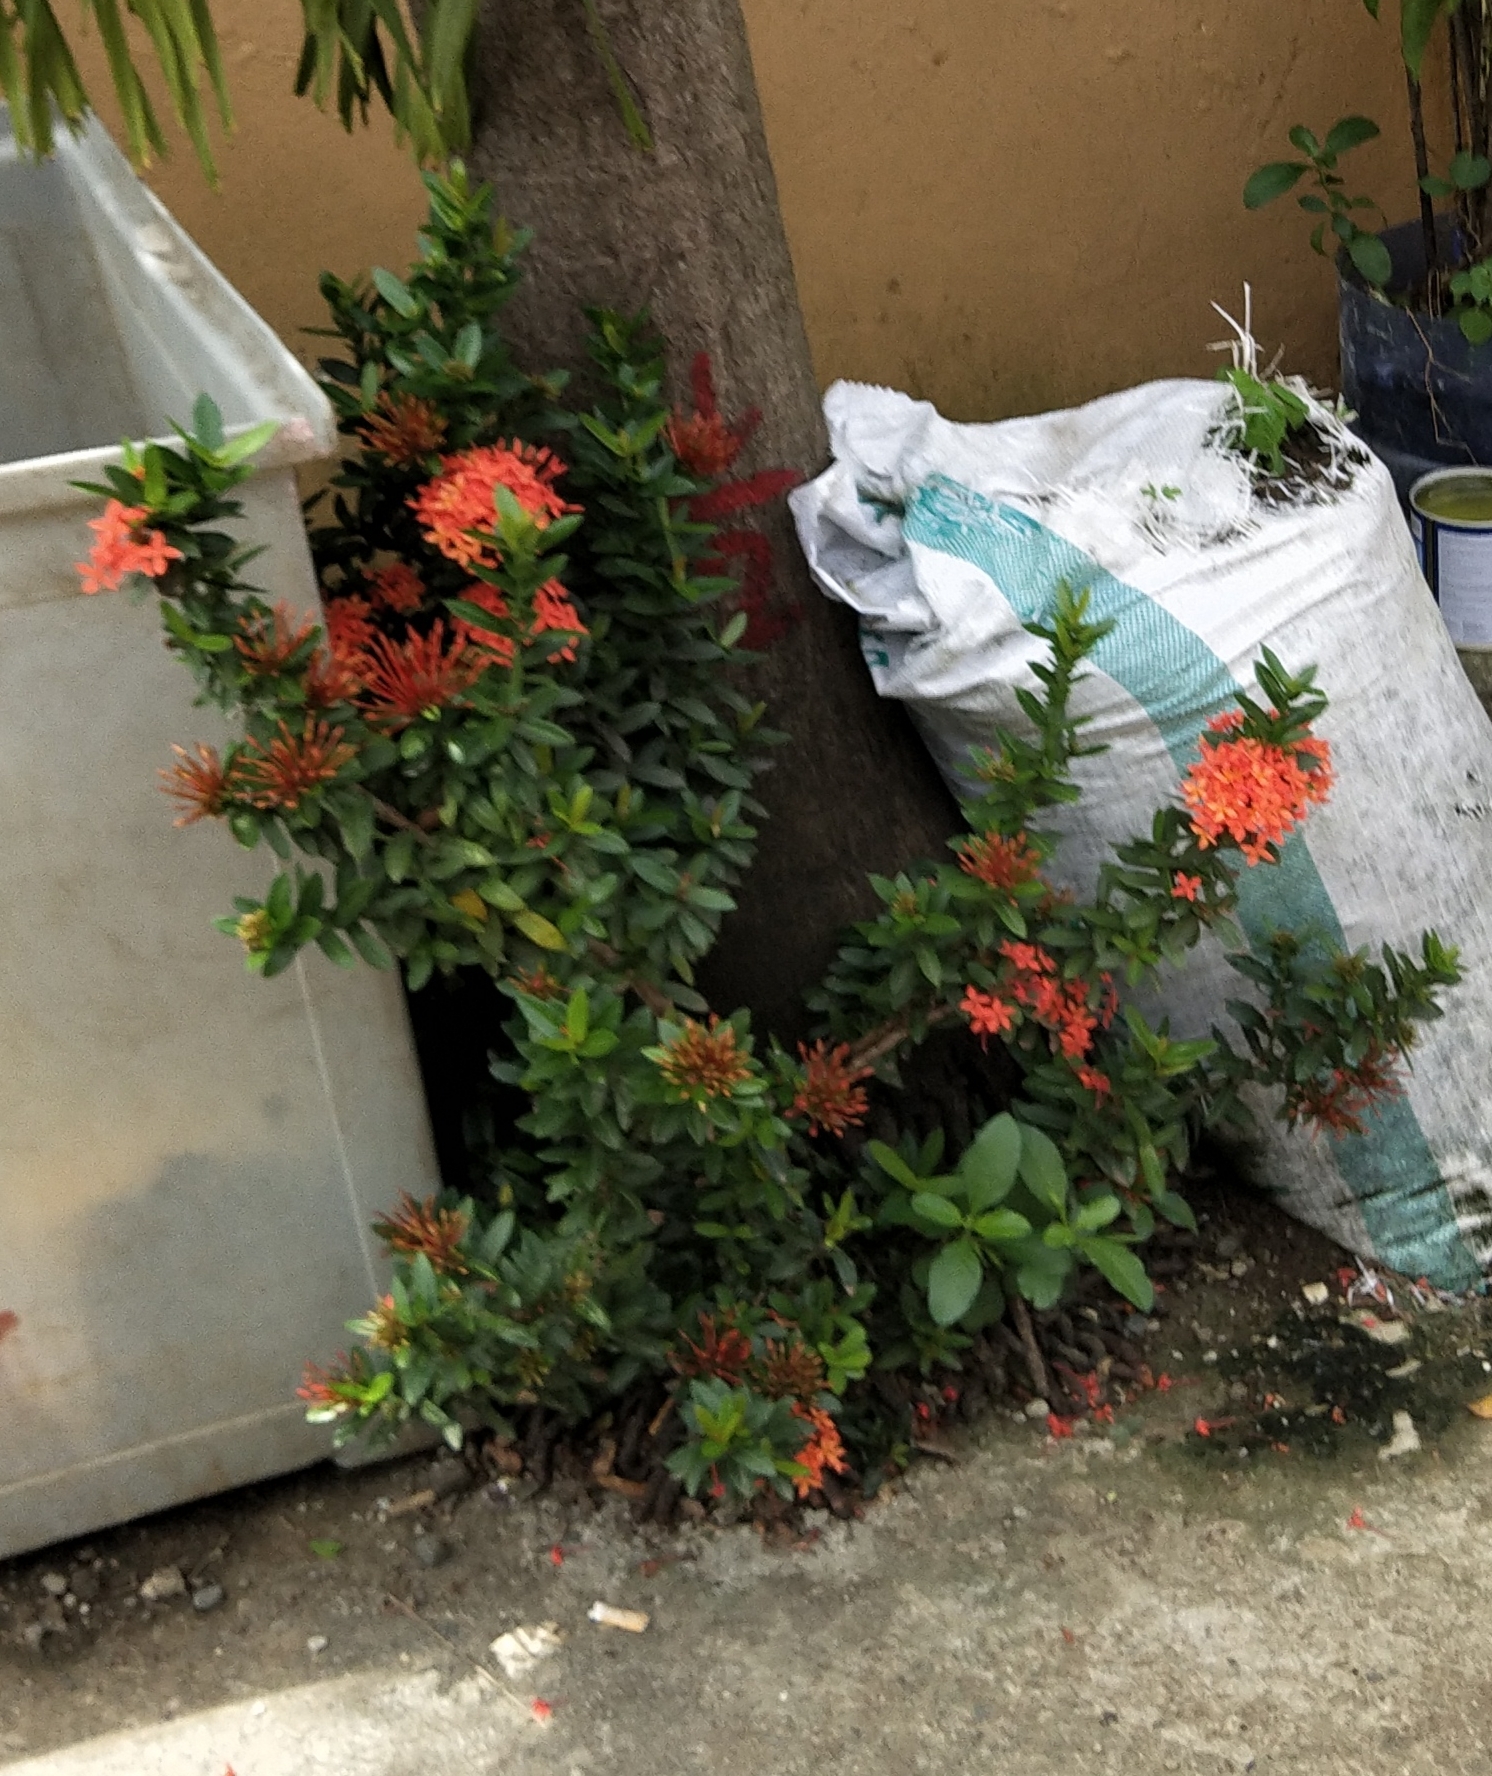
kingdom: Plantae
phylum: Tracheophyta
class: Magnoliopsida
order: Gentianales
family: Rubiaceae
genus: Ixora
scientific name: Ixora chinensis
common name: Chinese ixora
